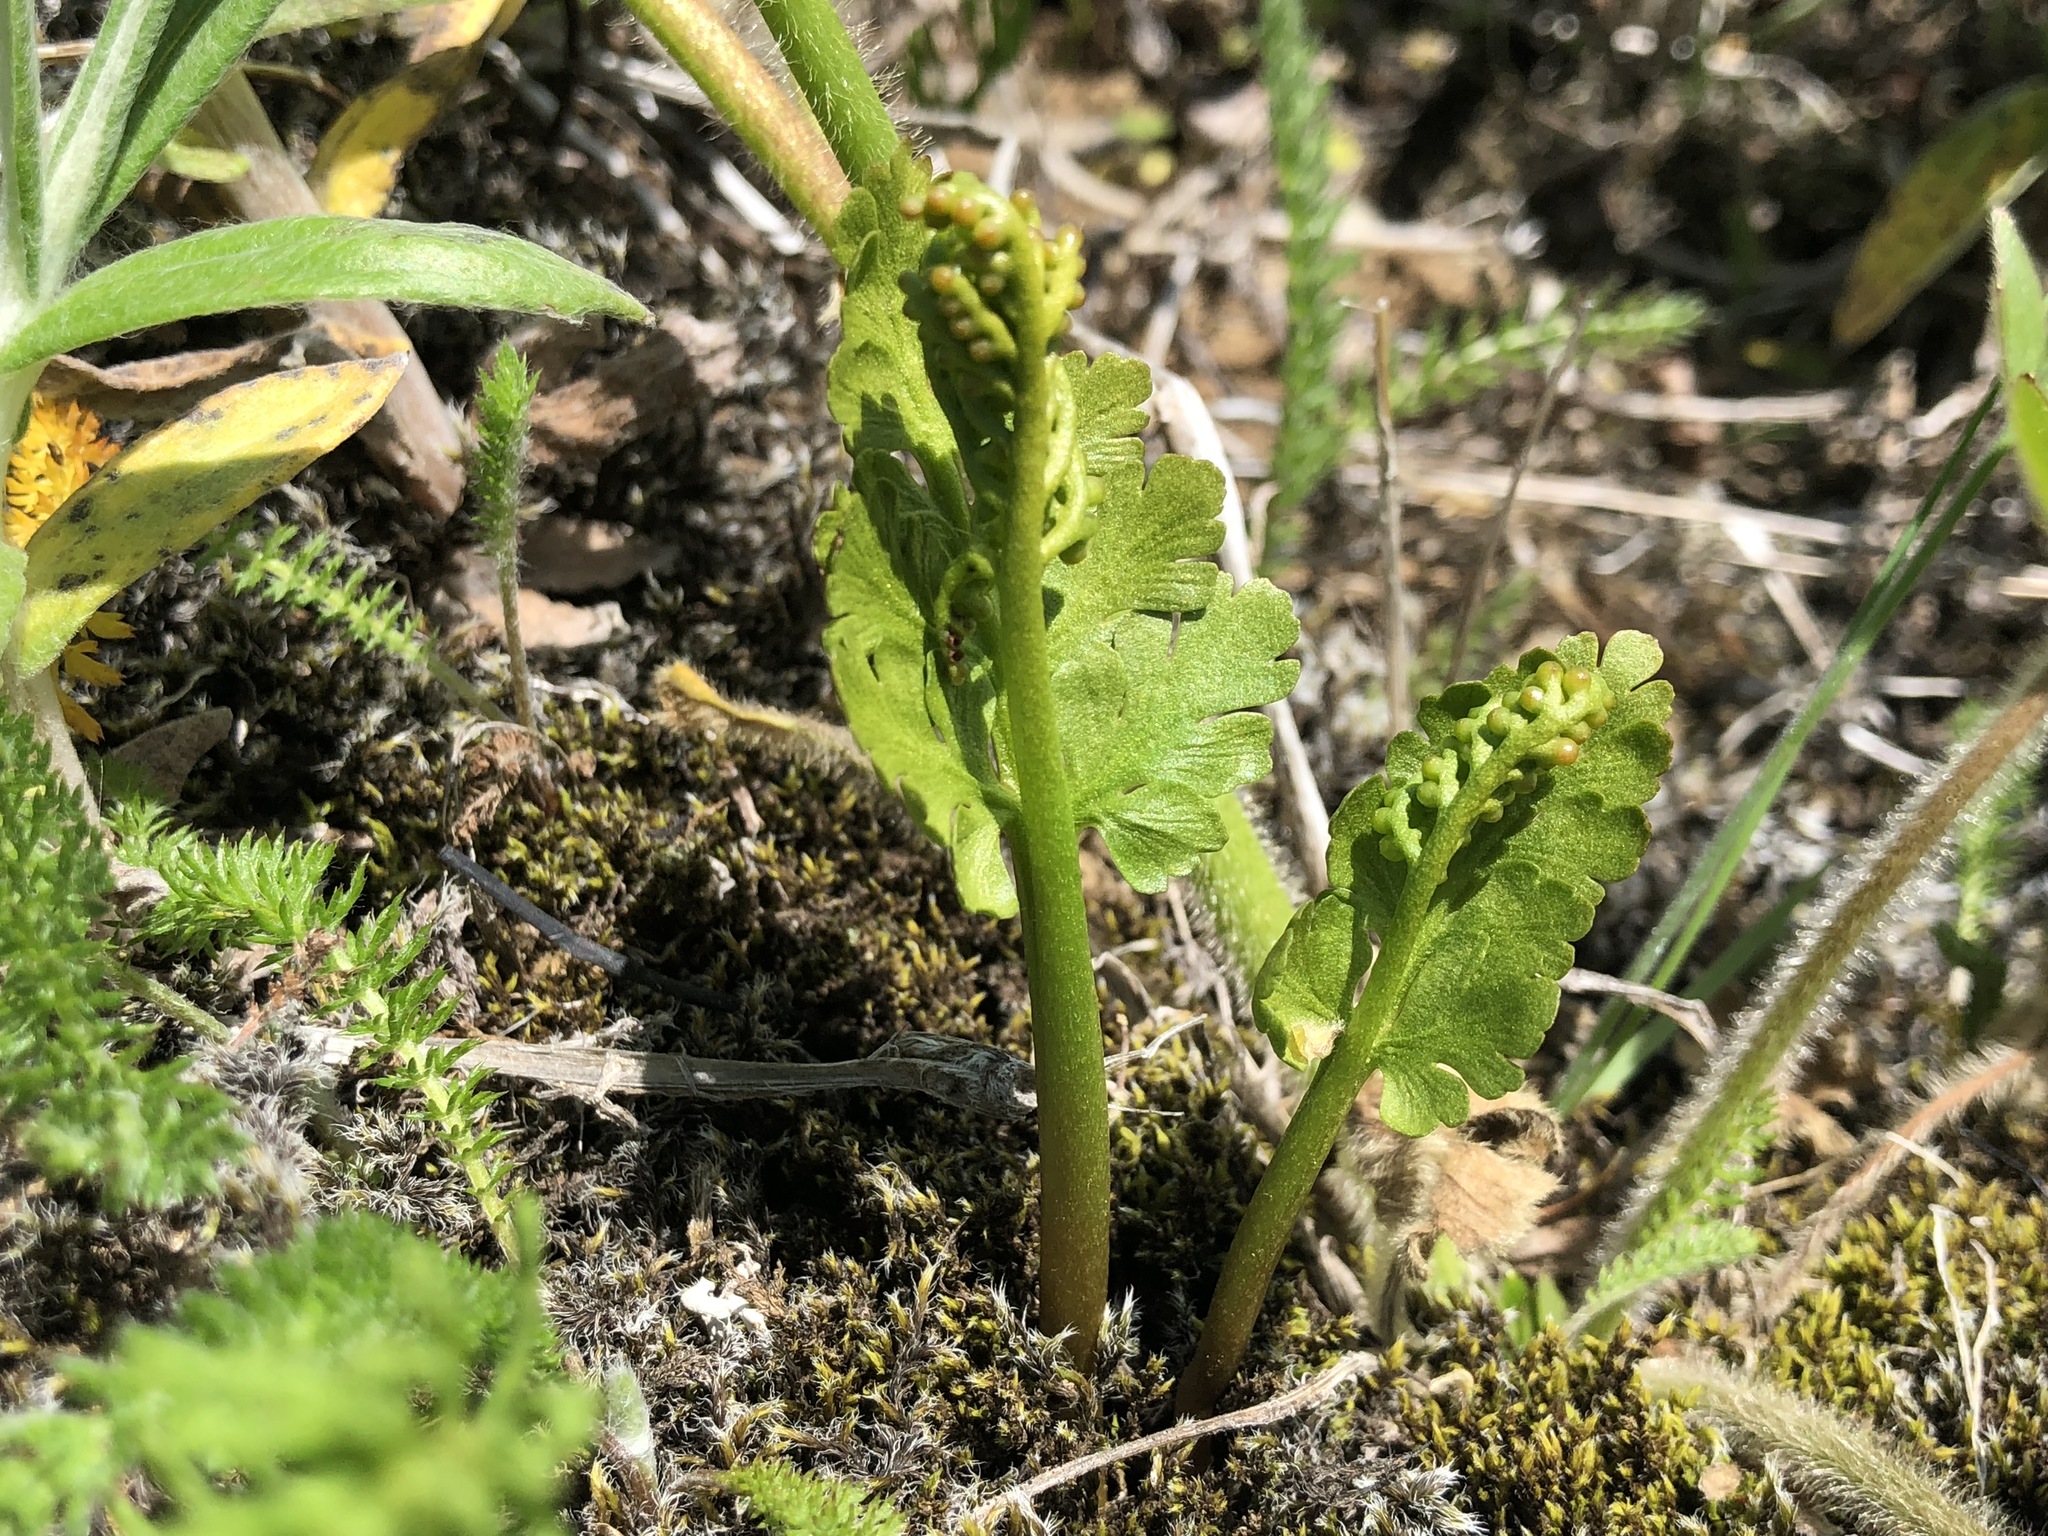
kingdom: Plantae
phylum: Tracheophyta
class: Polypodiopsida
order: Ophioglossales
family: Ophioglossaceae
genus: Botrychium
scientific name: Botrychium pinnatum
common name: Northwestern moonwort
